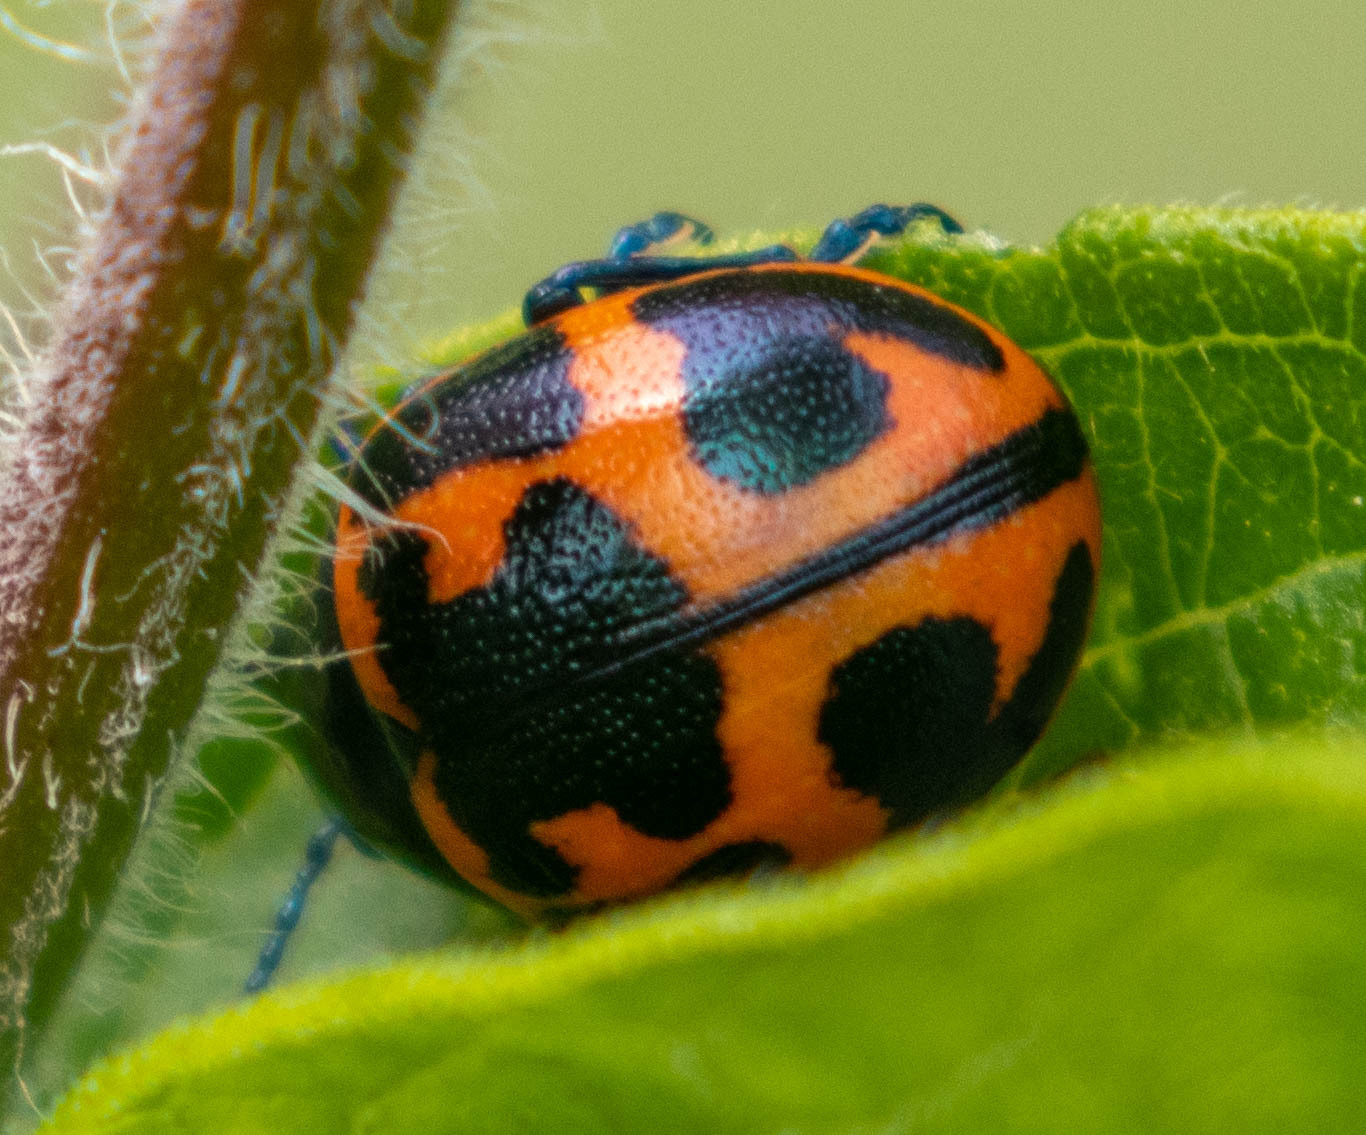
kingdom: Animalia
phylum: Arthropoda
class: Insecta
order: Coleoptera
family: Chrysomelidae
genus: Labidomera
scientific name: Labidomera clivicollis
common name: Swamp milkweed leaf beetle
